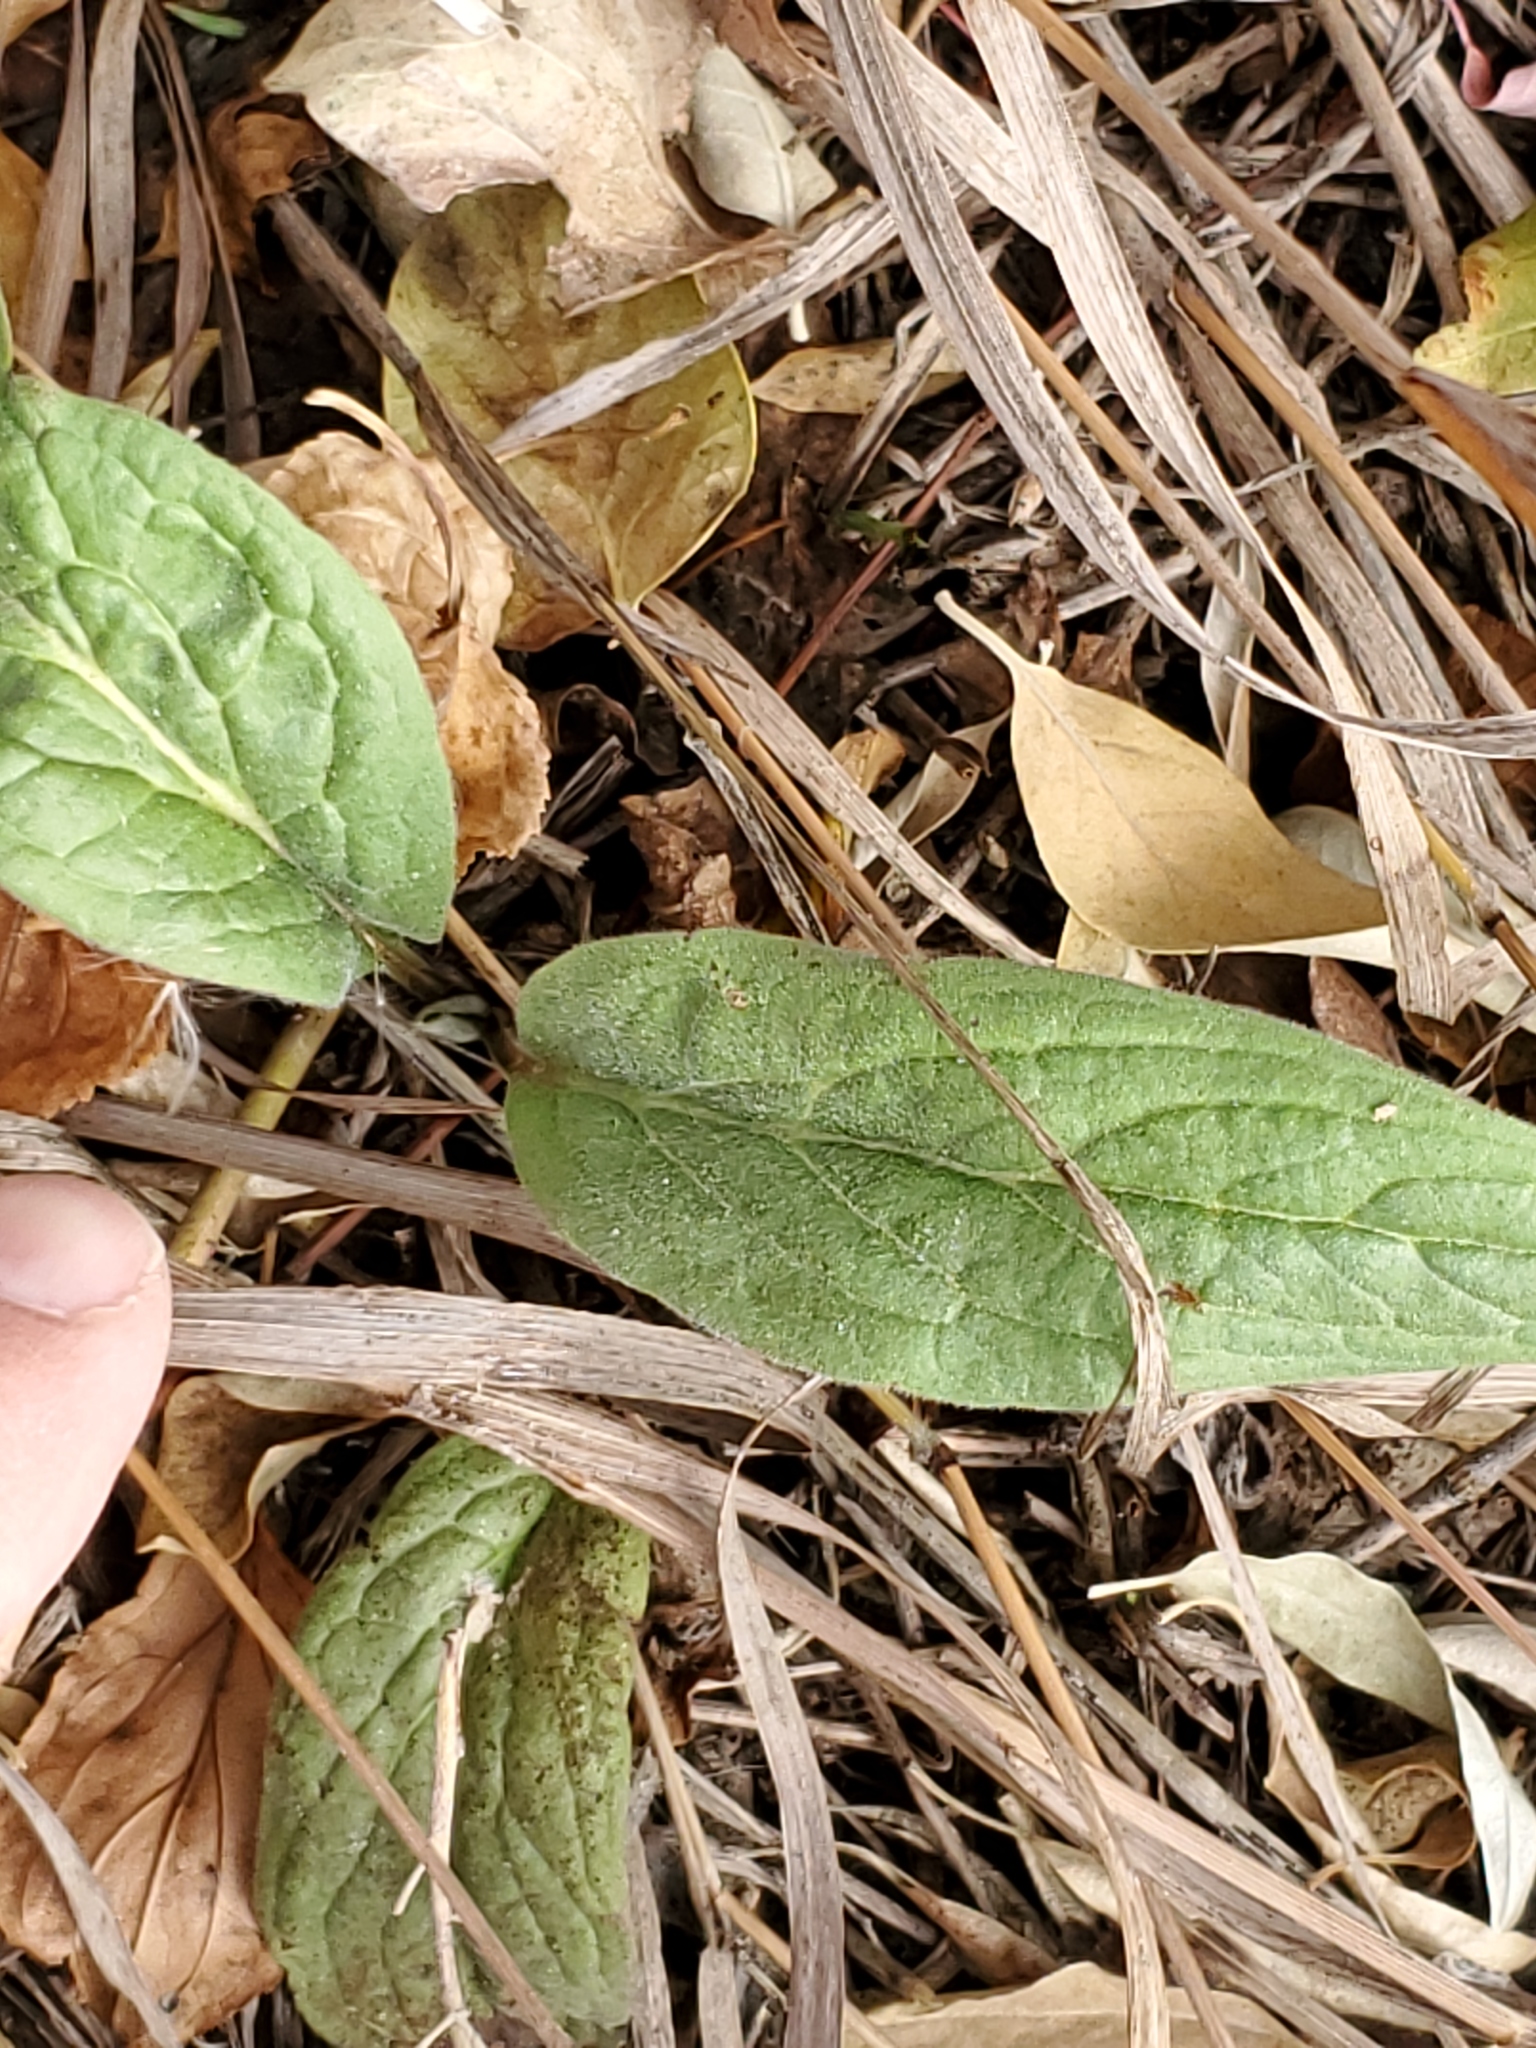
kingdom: Plantae
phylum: Tracheophyta
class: Magnoliopsida
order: Boraginales
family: Boraginaceae
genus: Cynoglossum
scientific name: Cynoglossum officinale
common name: Hound's-tongue
